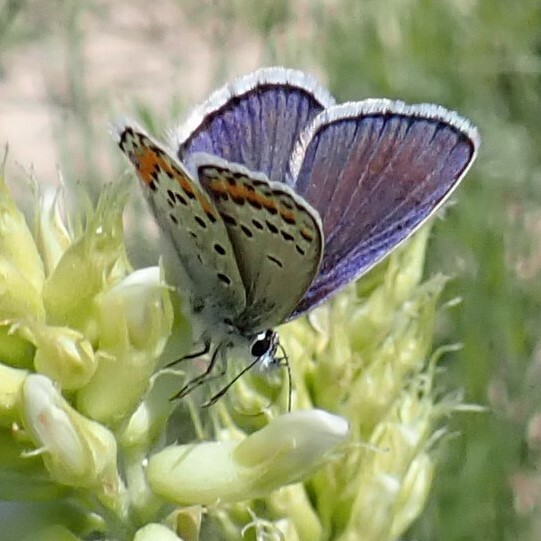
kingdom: Animalia
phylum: Arthropoda
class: Insecta
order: Lepidoptera
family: Lycaenidae
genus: Lycaeides
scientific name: Lycaeides melissa
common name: Melissa blue
